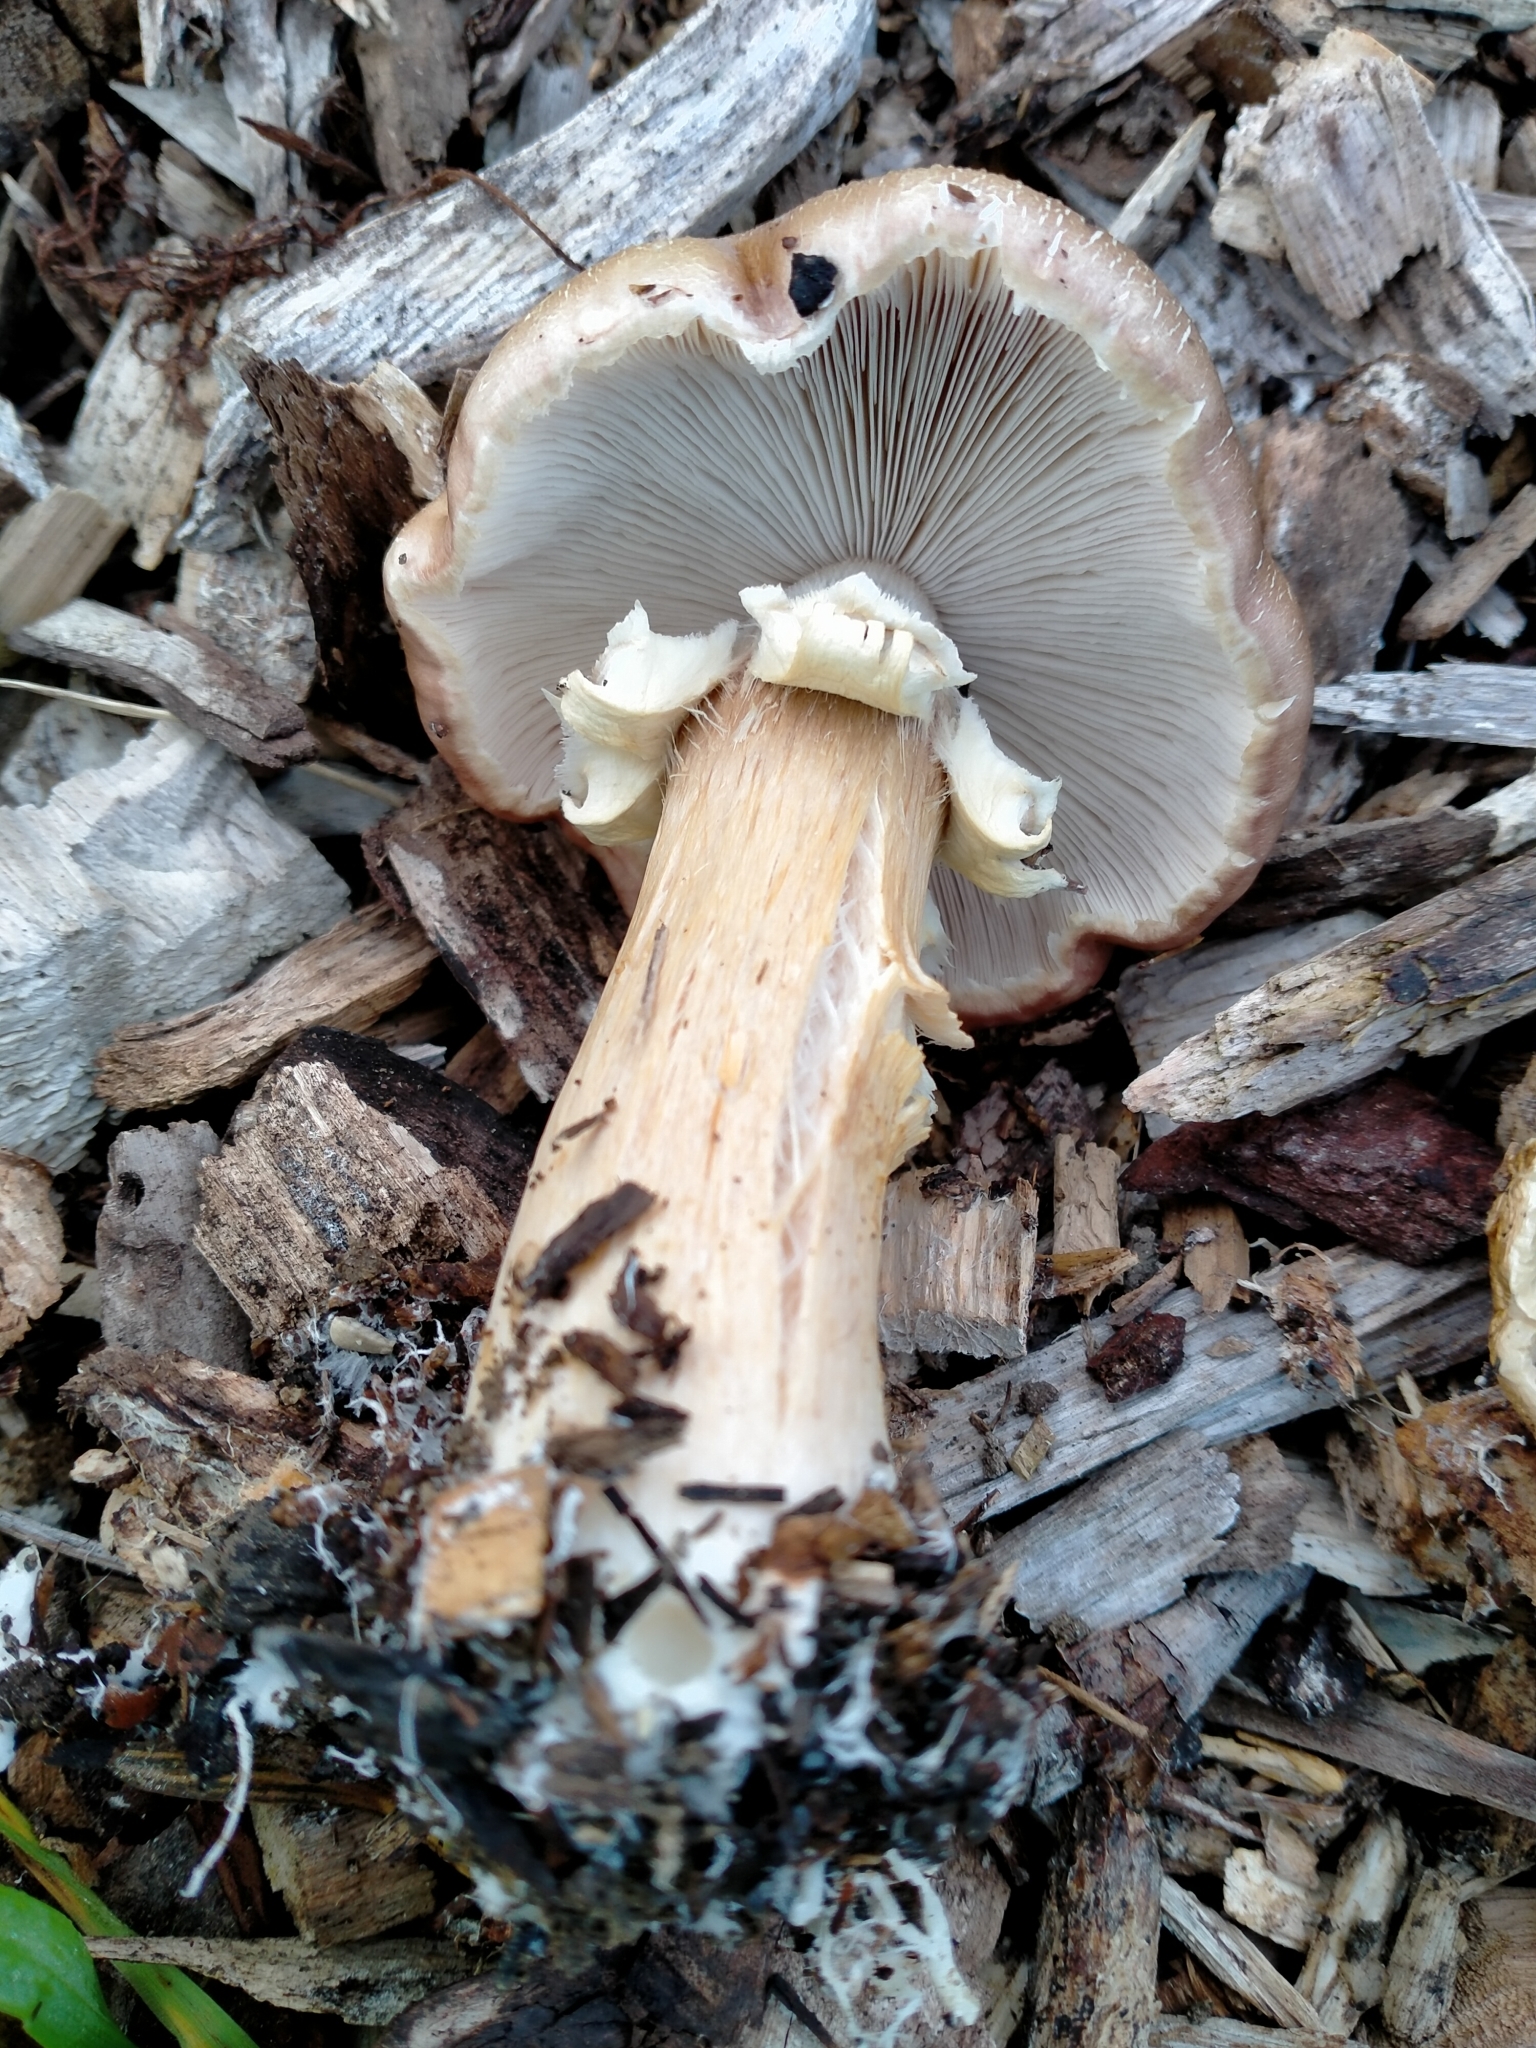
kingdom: Fungi
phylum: Basidiomycota
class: Agaricomycetes
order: Agaricales
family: Strophariaceae
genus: Stropharia
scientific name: Stropharia rugosoannulata
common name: Wine roundhead
